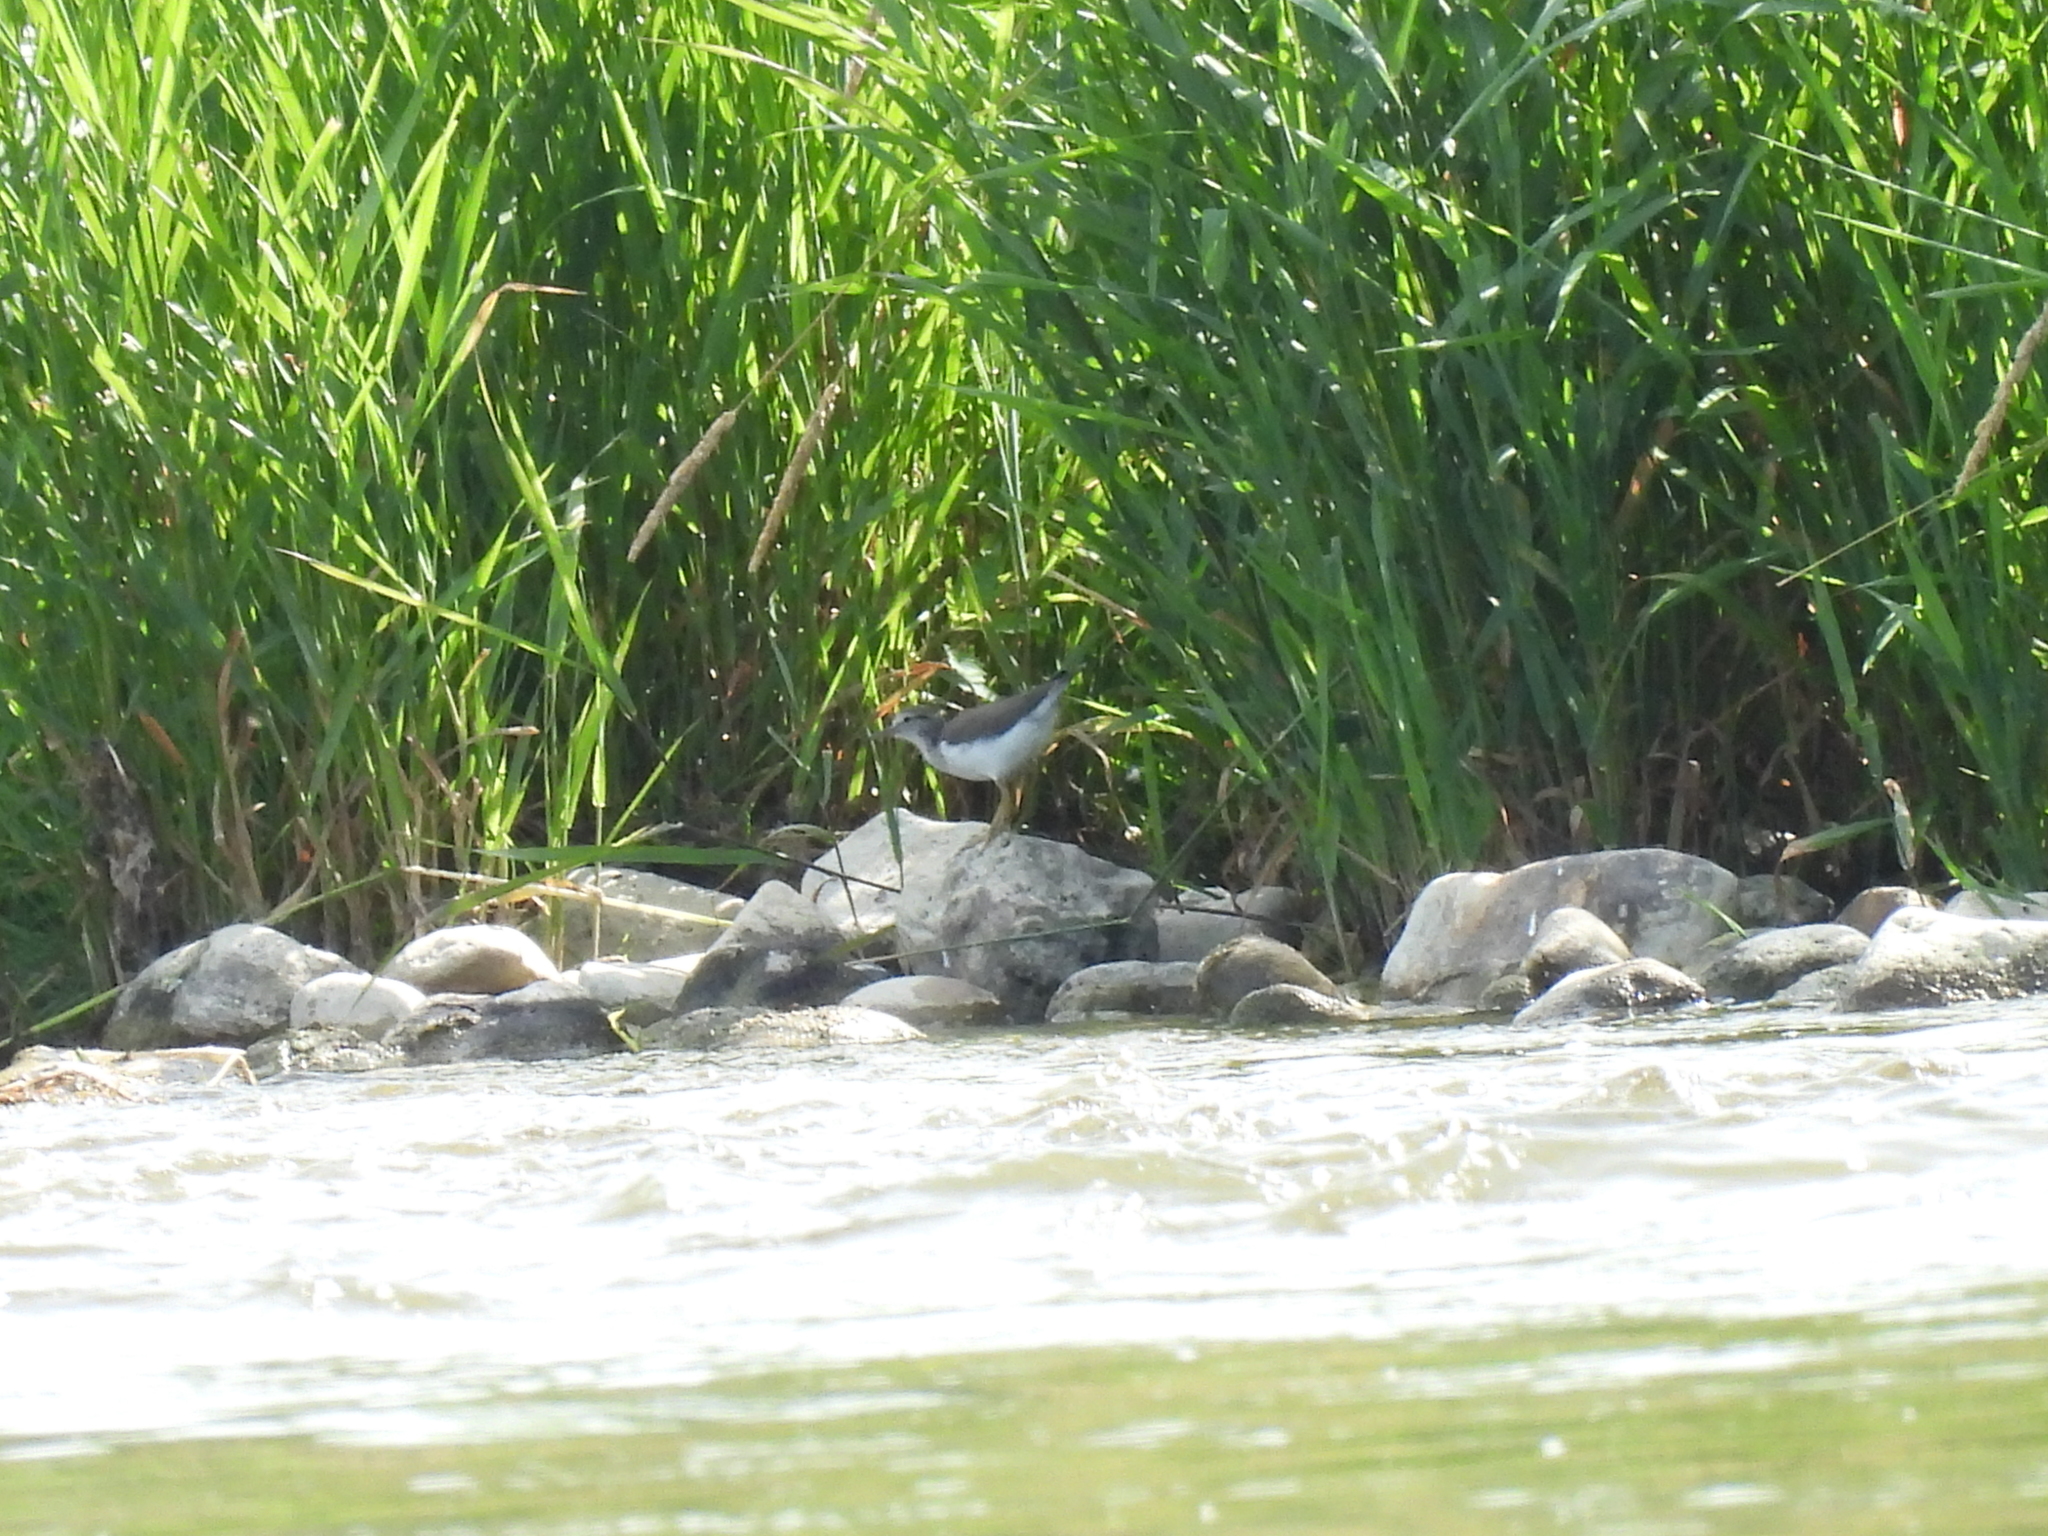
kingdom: Animalia
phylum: Chordata
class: Aves
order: Charadriiformes
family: Scolopacidae
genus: Actitis
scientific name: Actitis macularius
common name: Spotted sandpiper
